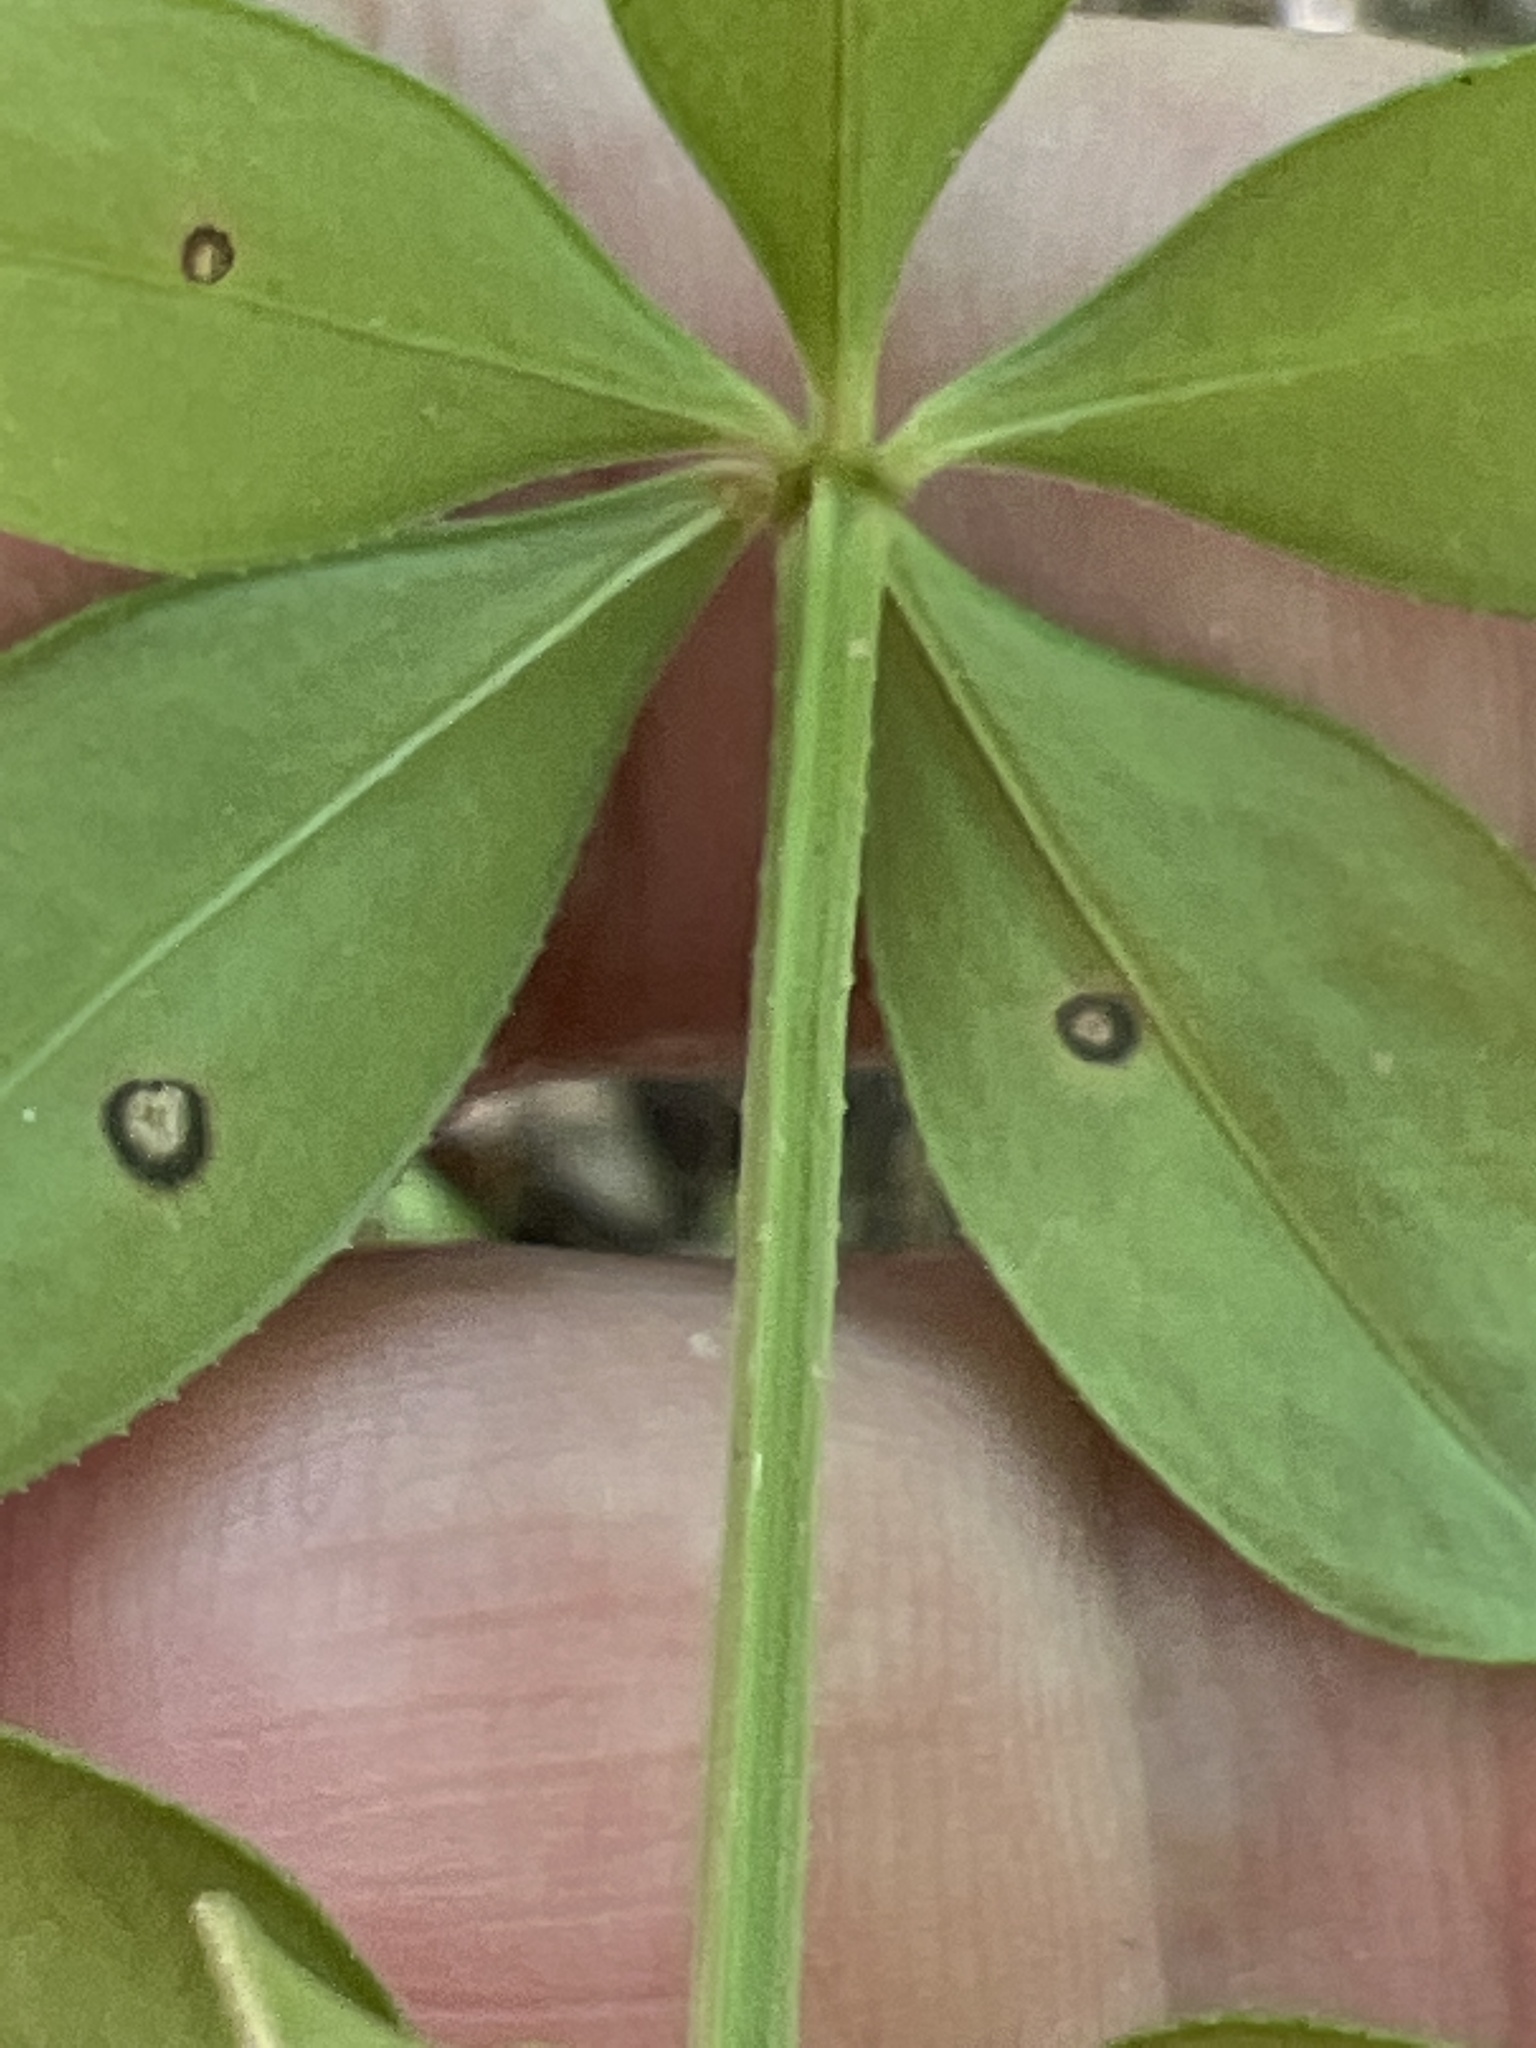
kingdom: Plantae
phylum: Tracheophyta
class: Magnoliopsida
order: Gentianales
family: Rubiaceae
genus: Rubia
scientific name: Rubia peregrina
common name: Wild madder
